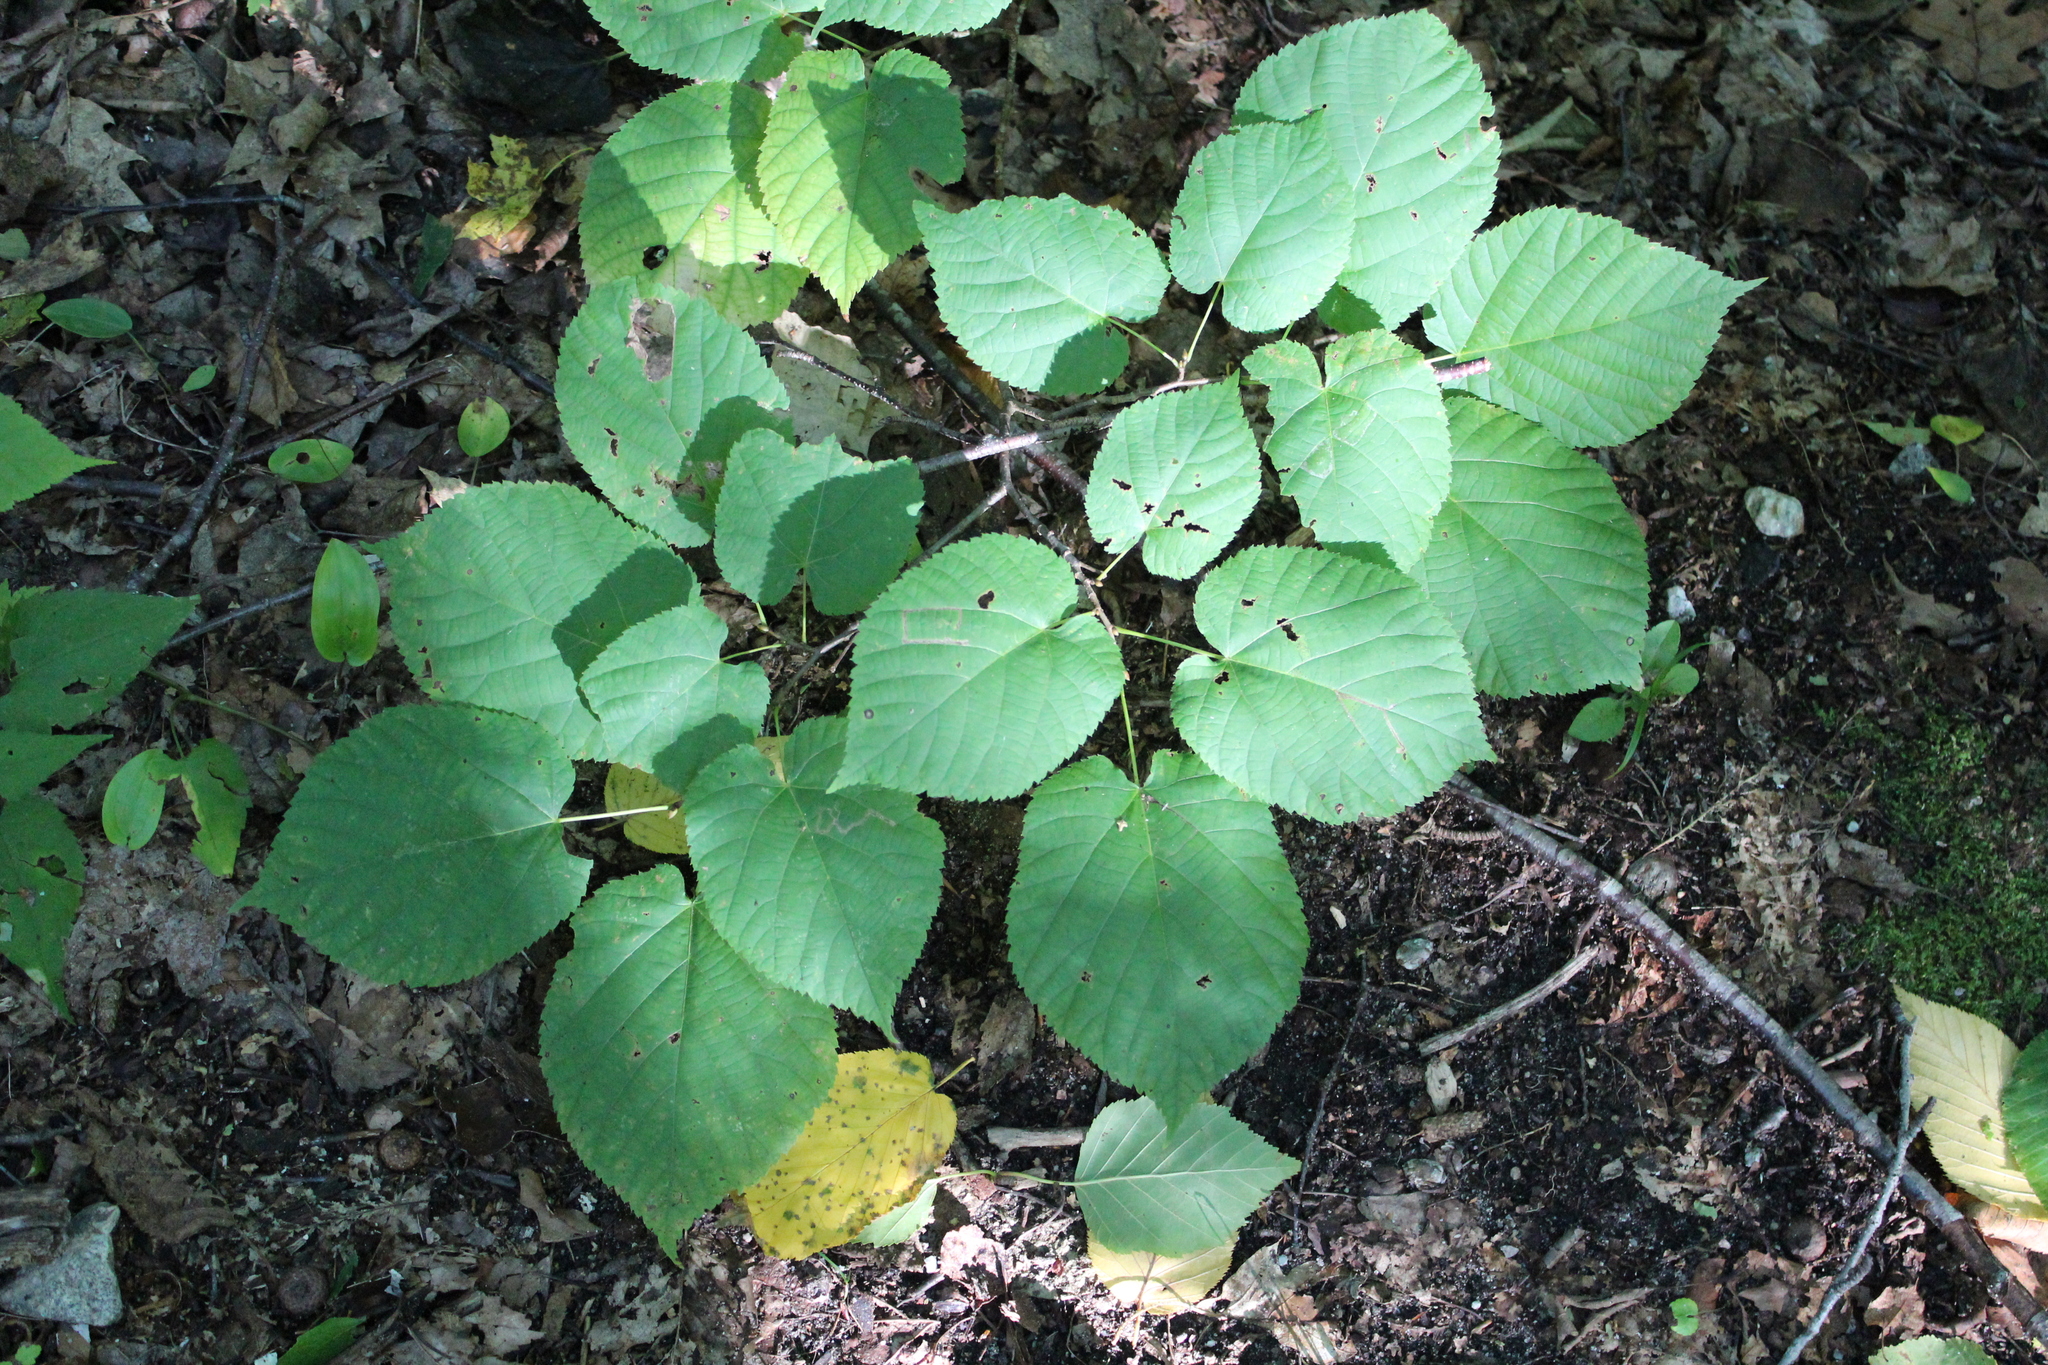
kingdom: Plantae
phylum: Tracheophyta
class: Magnoliopsida
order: Malvales
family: Malvaceae
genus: Tilia
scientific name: Tilia americana
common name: Basswood
